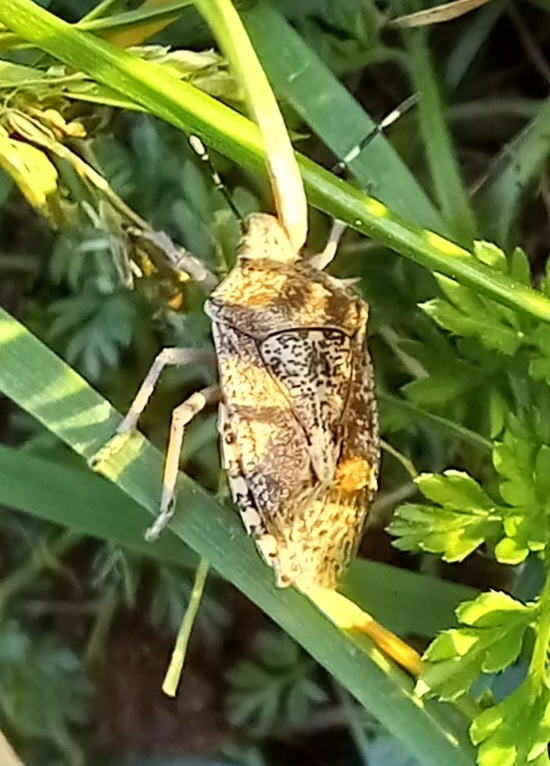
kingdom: Animalia
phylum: Arthropoda
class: Insecta
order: Hemiptera
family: Pentatomidae
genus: Rhaphigaster
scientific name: Rhaphigaster nebulosa
